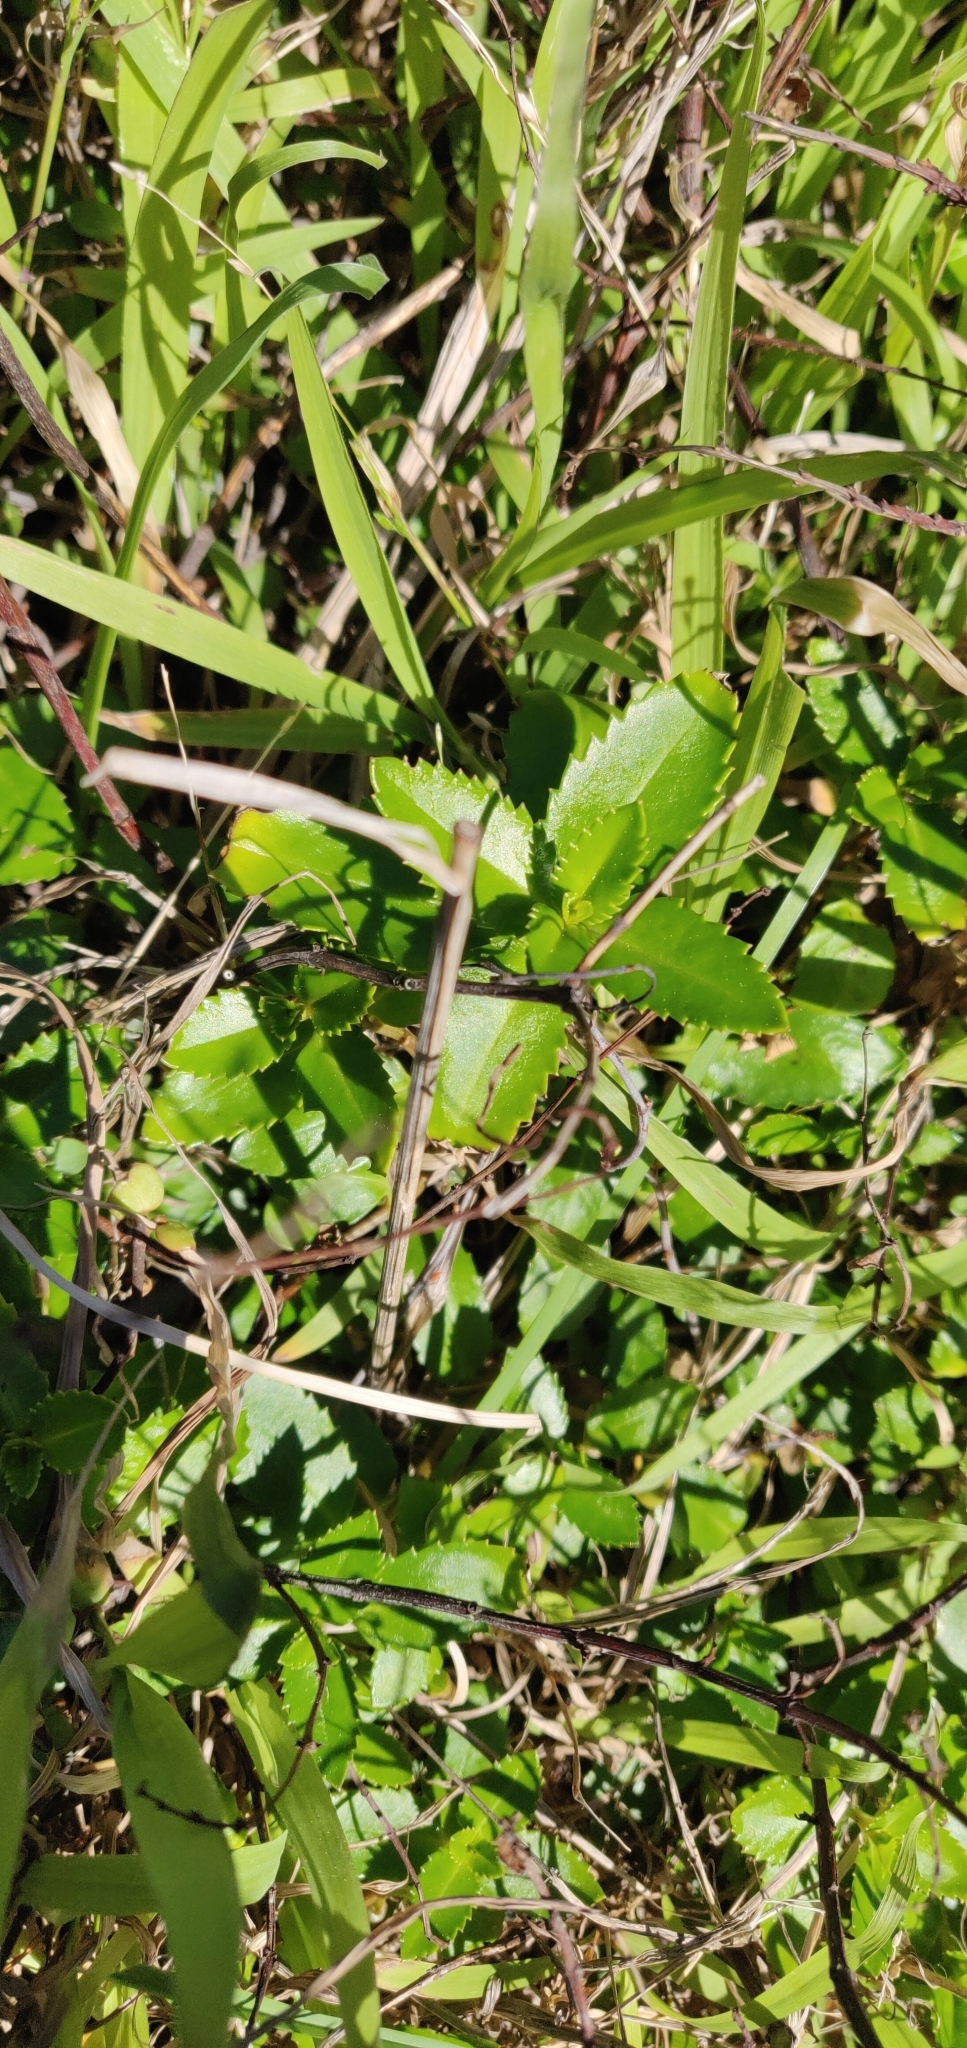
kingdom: Plantae
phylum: Tracheophyta
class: Magnoliopsida
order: Saxifragales
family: Haloragaceae
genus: Haloragis
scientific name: Haloragis erecta
